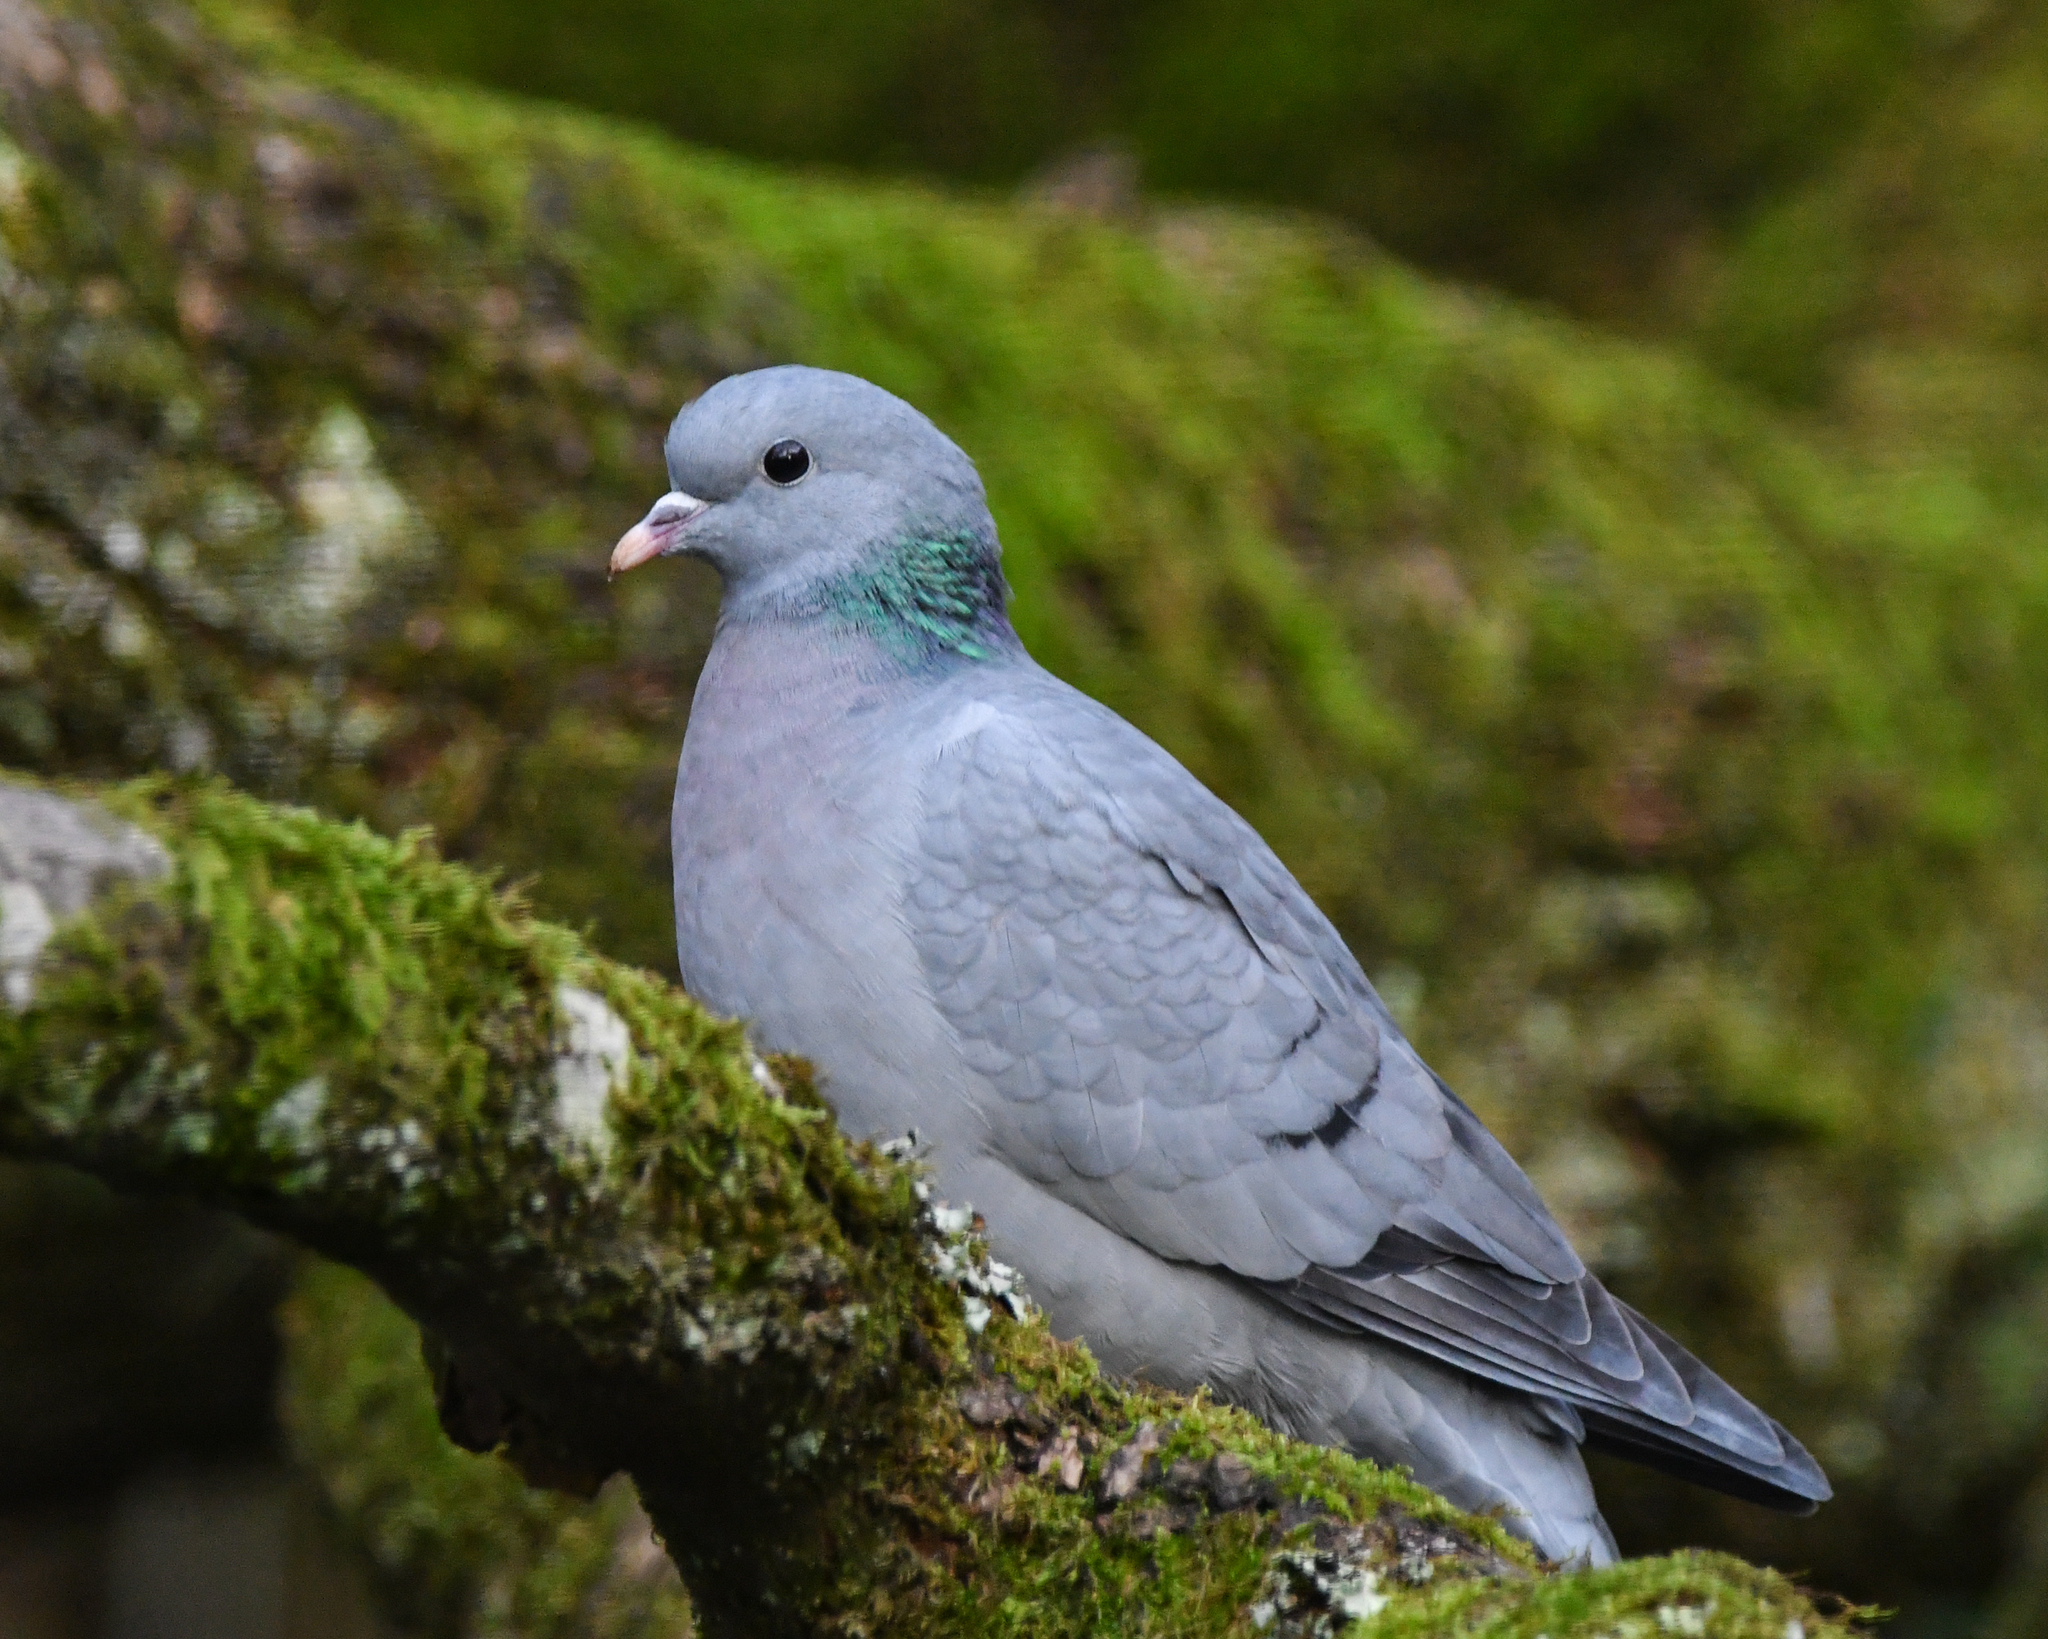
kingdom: Animalia
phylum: Chordata
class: Aves
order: Columbiformes
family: Columbidae
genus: Columba
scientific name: Columba oenas
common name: Stock dove
